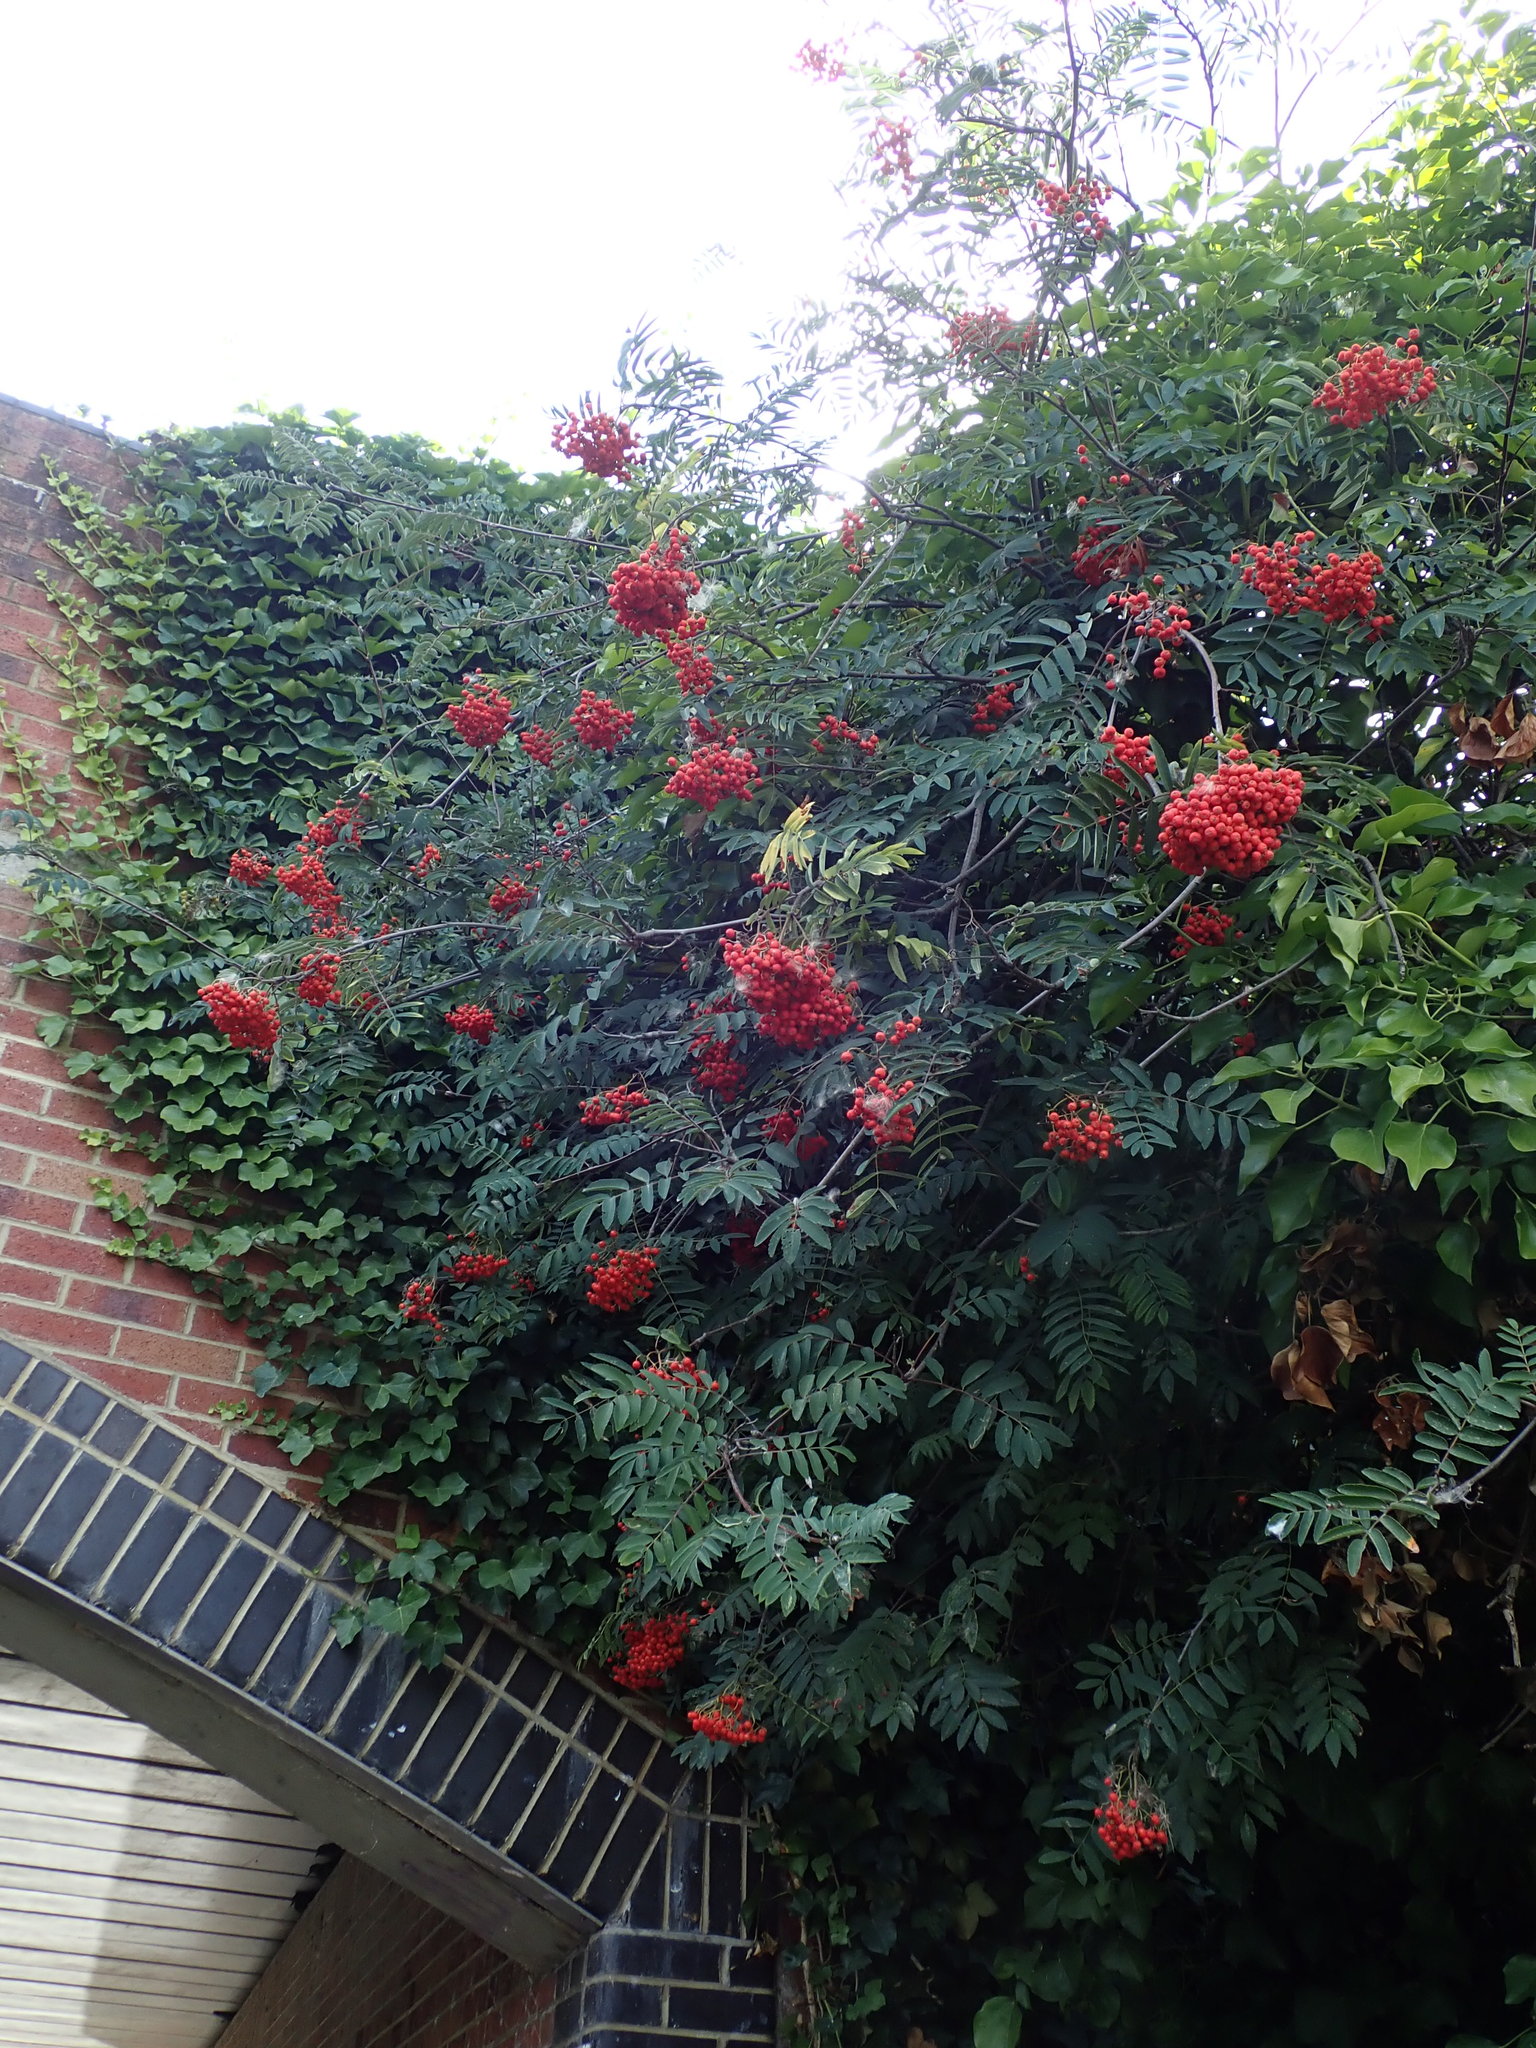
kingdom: Plantae
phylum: Tracheophyta
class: Magnoliopsida
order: Rosales
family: Rosaceae
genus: Sorbus
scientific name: Sorbus aucuparia
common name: Rowan
